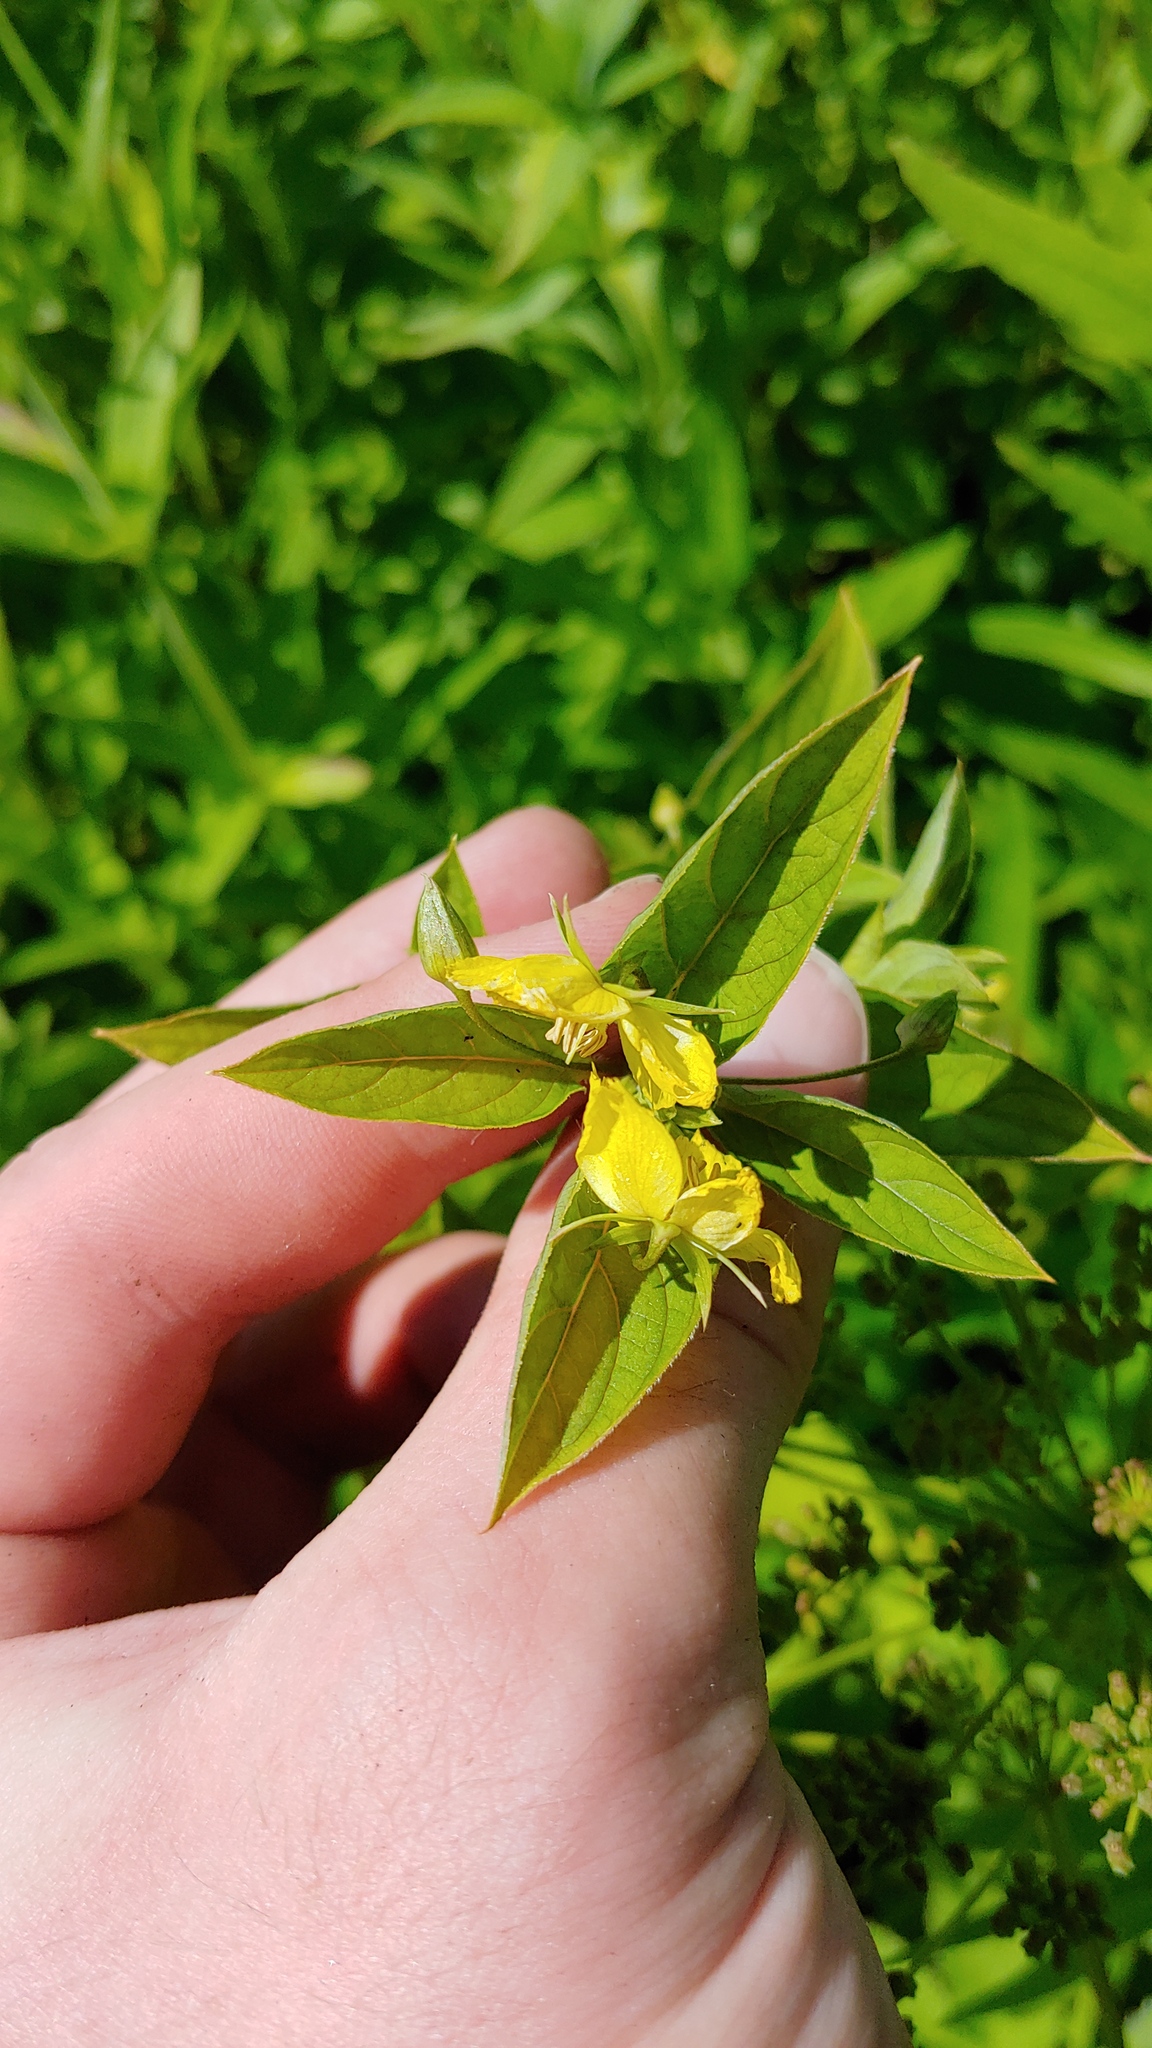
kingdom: Plantae
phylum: Tracheophyta
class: Magnoliopsida
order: Ericales
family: Primulaceae
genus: Lysimachia
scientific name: Lysimachia ciliata
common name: Fringed loosestrife
